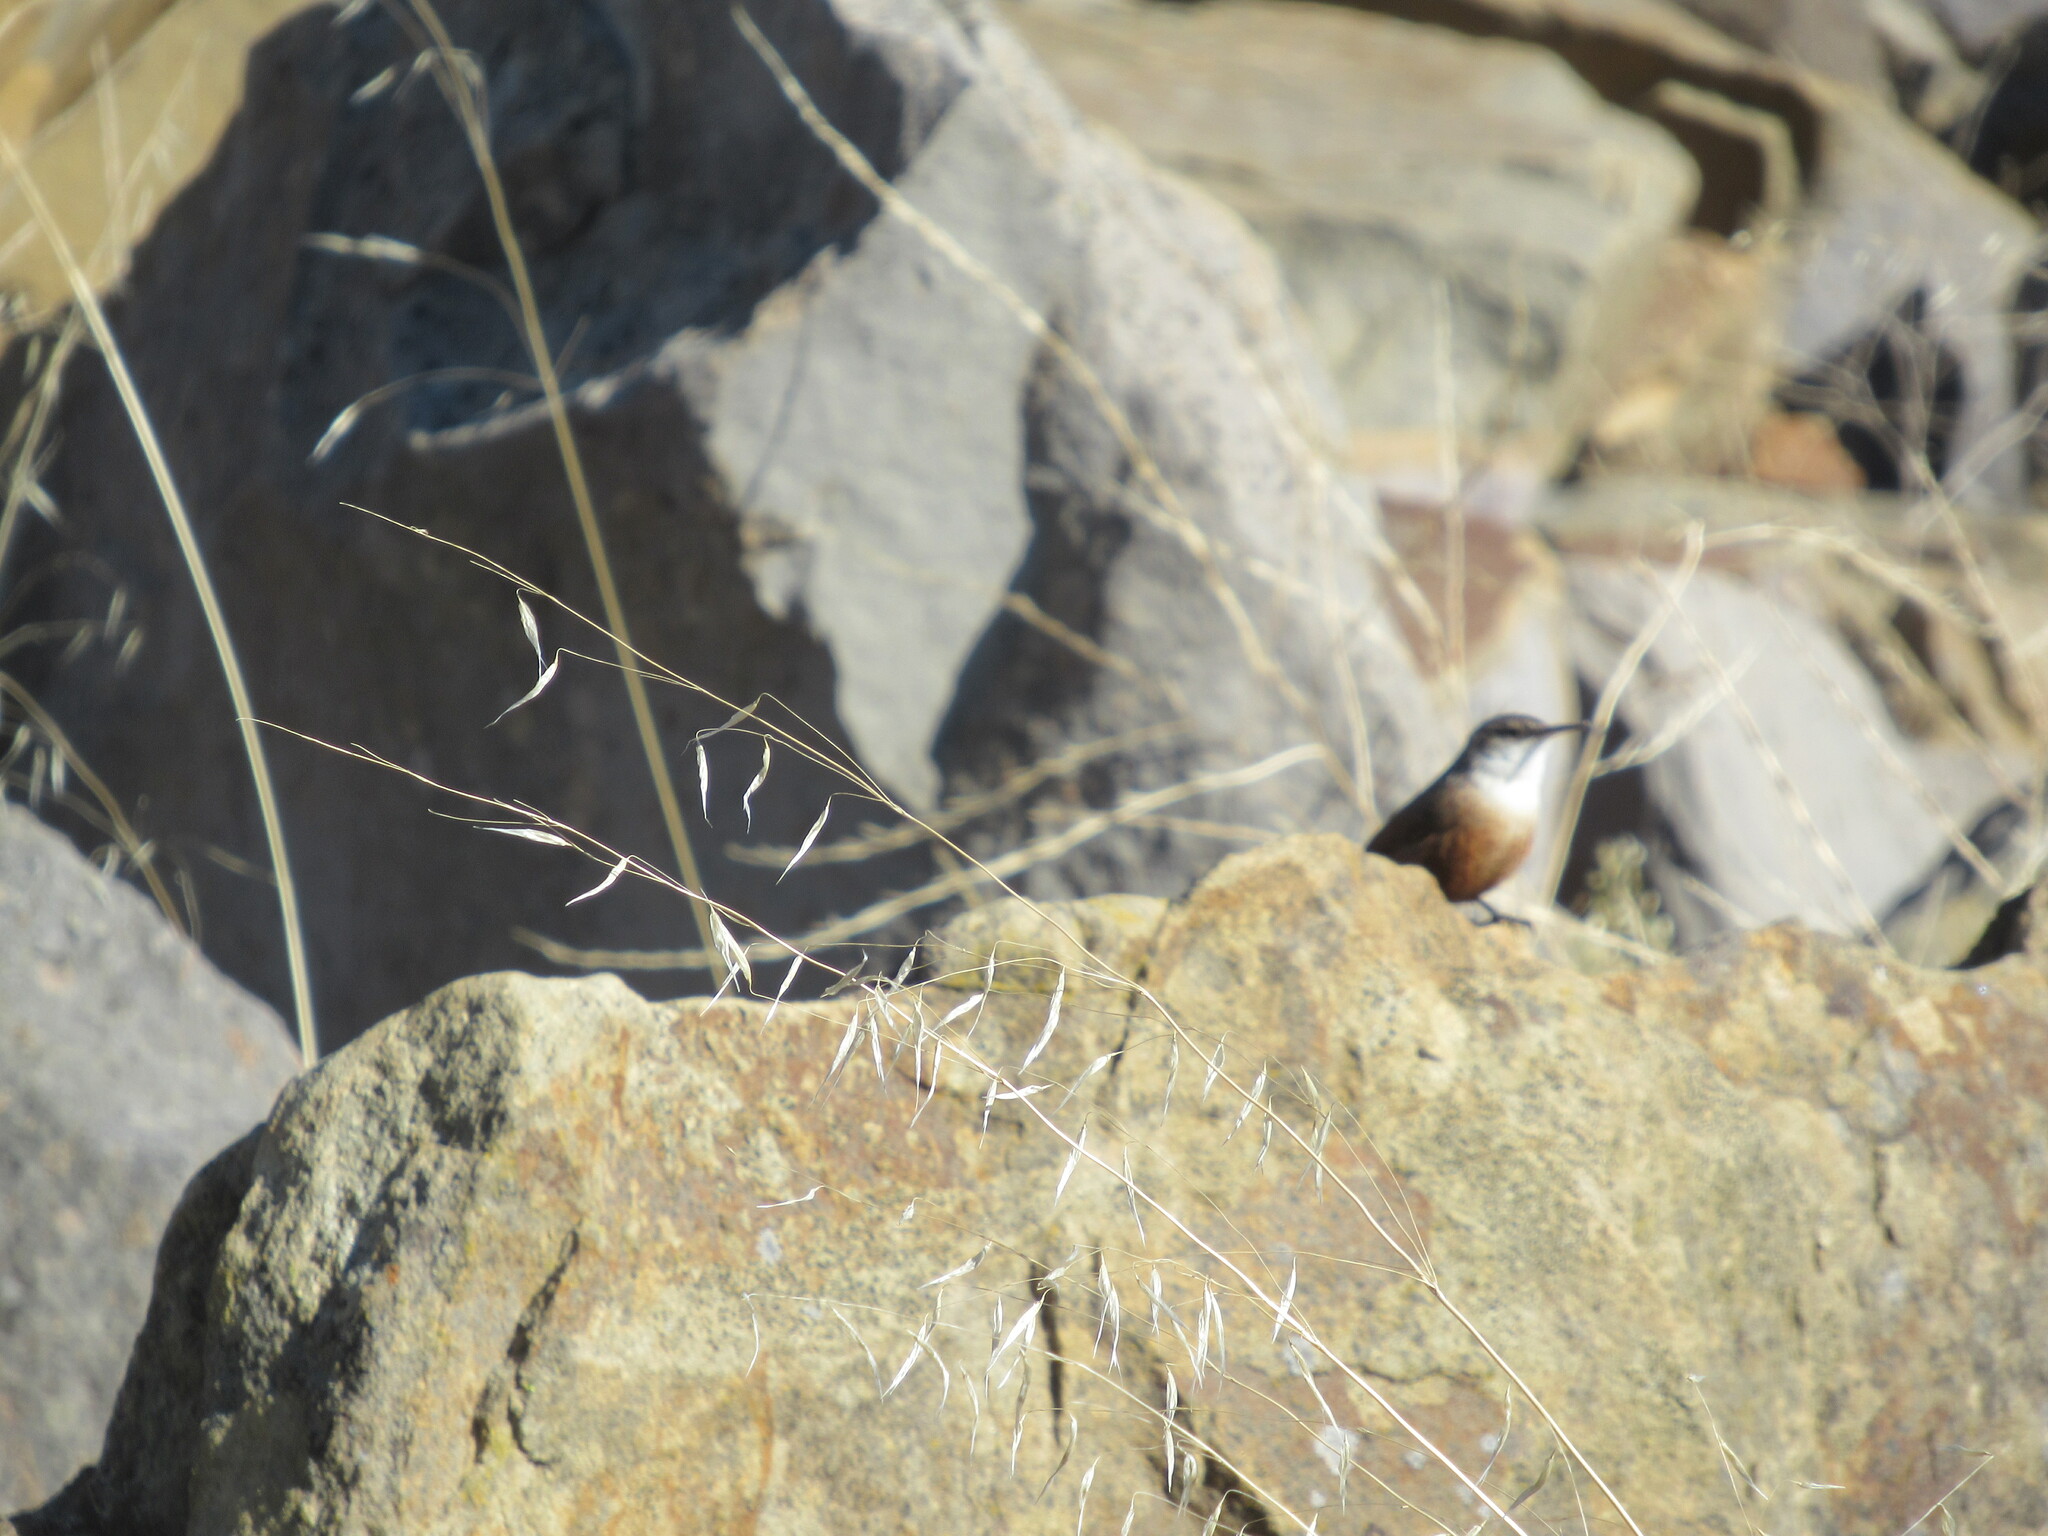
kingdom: Animalia
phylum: Chordata
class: Aves
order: Passeriformes
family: Troglodytidae
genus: Catherpes
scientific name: Catherpes mexicanus
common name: Canyon wren
